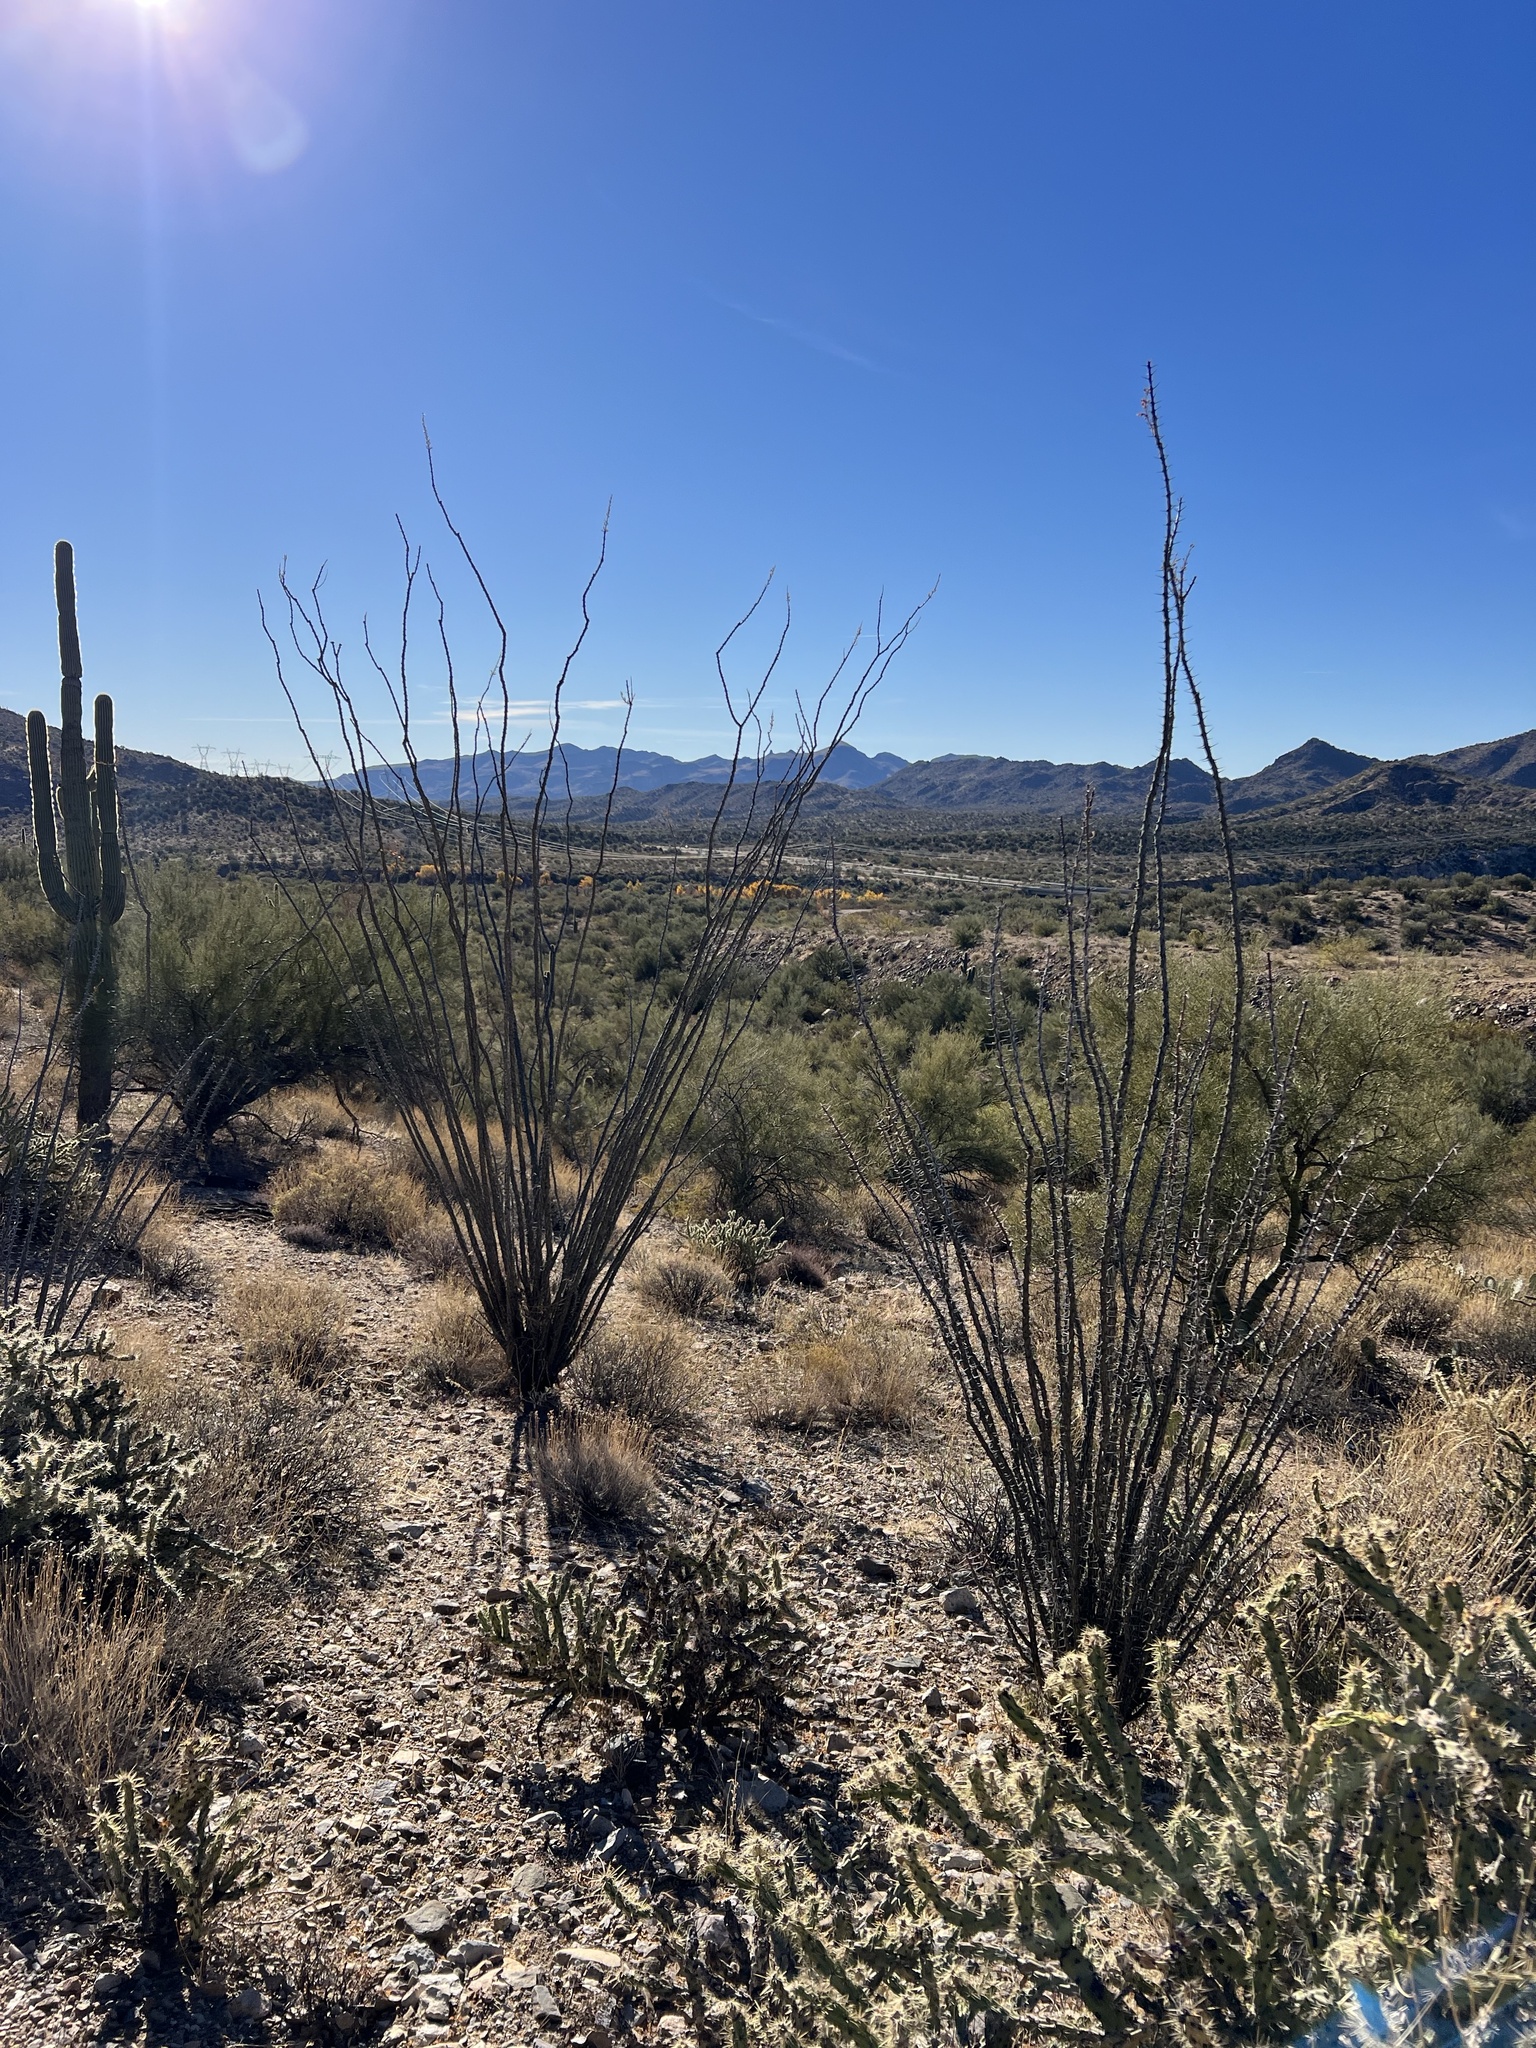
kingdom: Plantae
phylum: Tracheophyta
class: Magnoliopsida
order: Ericales
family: Fouquieriaceae
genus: Fouquieria
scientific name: Fouquieria splendens
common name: Vine-cactus
